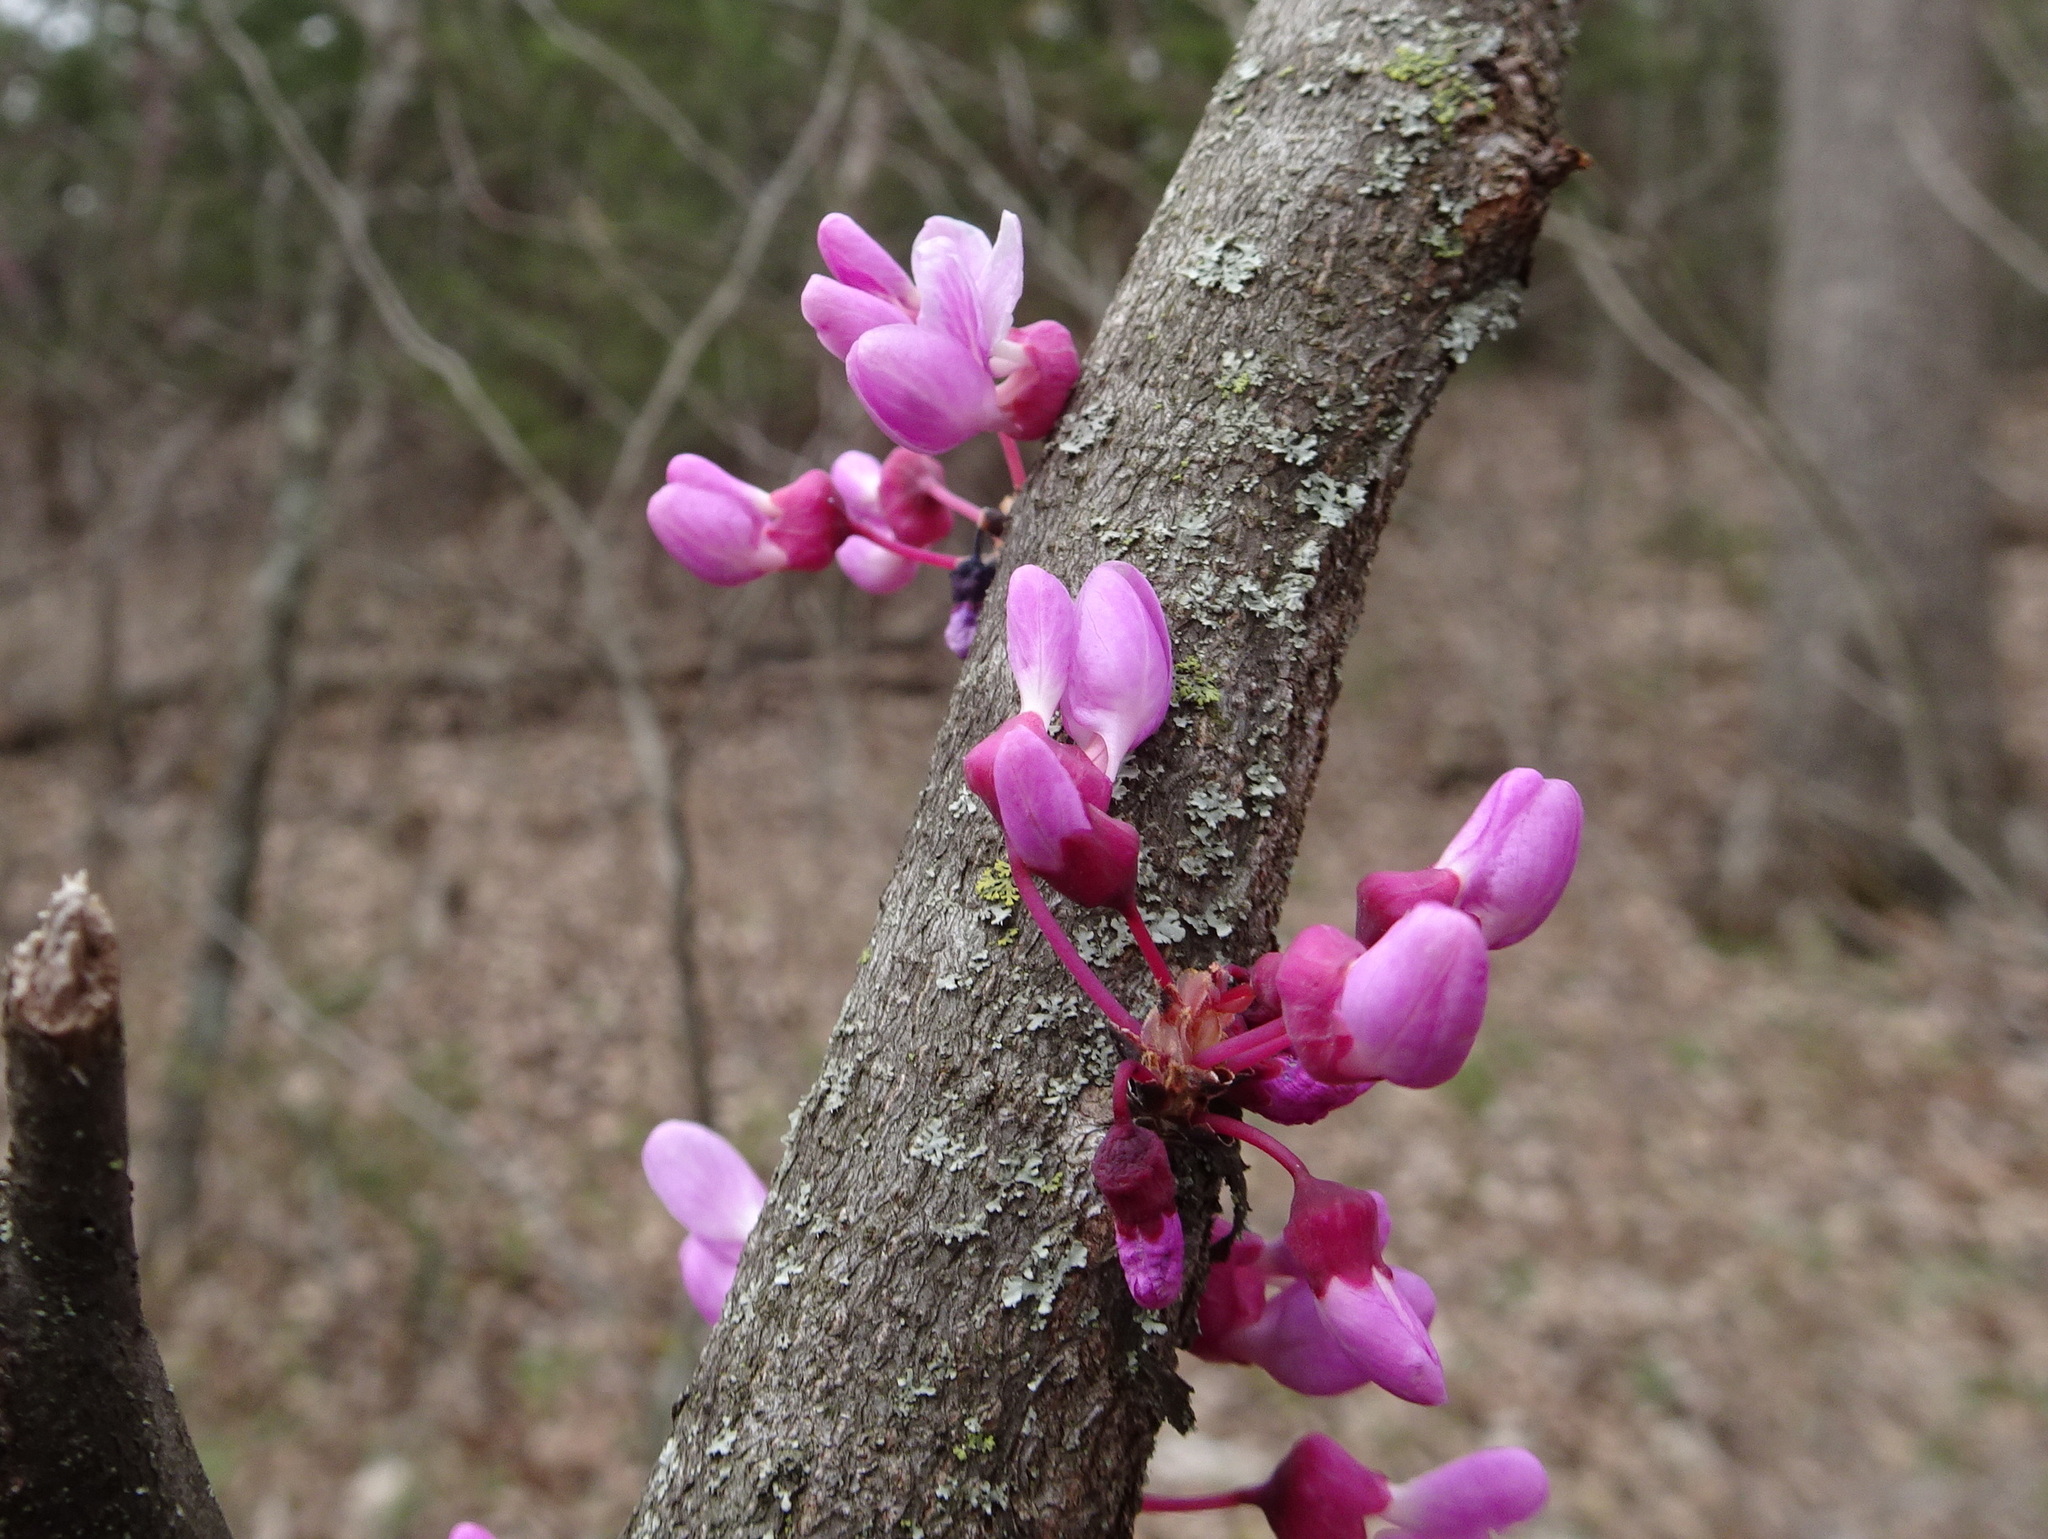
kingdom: Plantae
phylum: Tracheophyta
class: Magnoliopsida
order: Fabales
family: Fabaceae
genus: Cercis
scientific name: Cercis canadensis
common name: Eastern redbud
